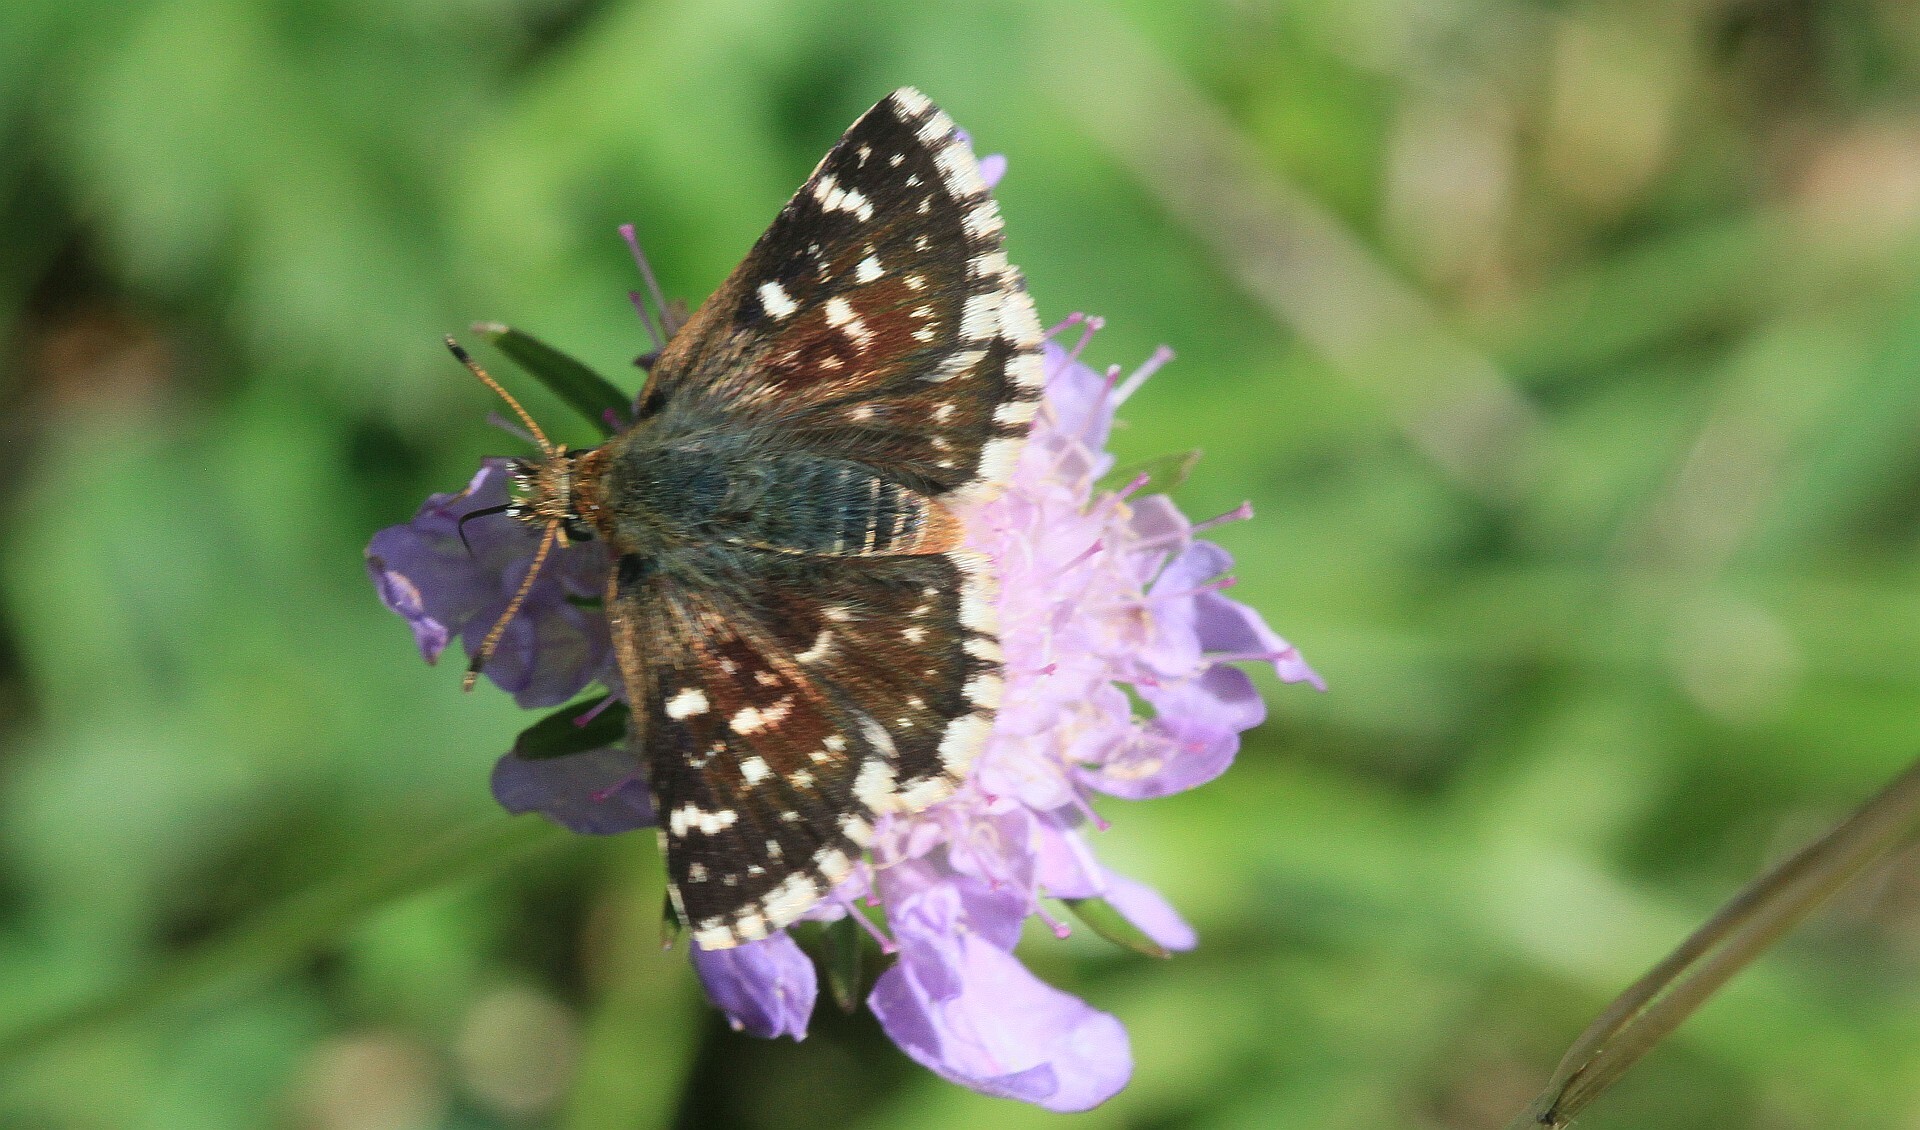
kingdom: Animalia
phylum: Arthropoda
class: Insecta
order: Lepidoptera
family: Hesperiidae
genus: Spialia
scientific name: Spialia sertorius
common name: Red underwing skipper
